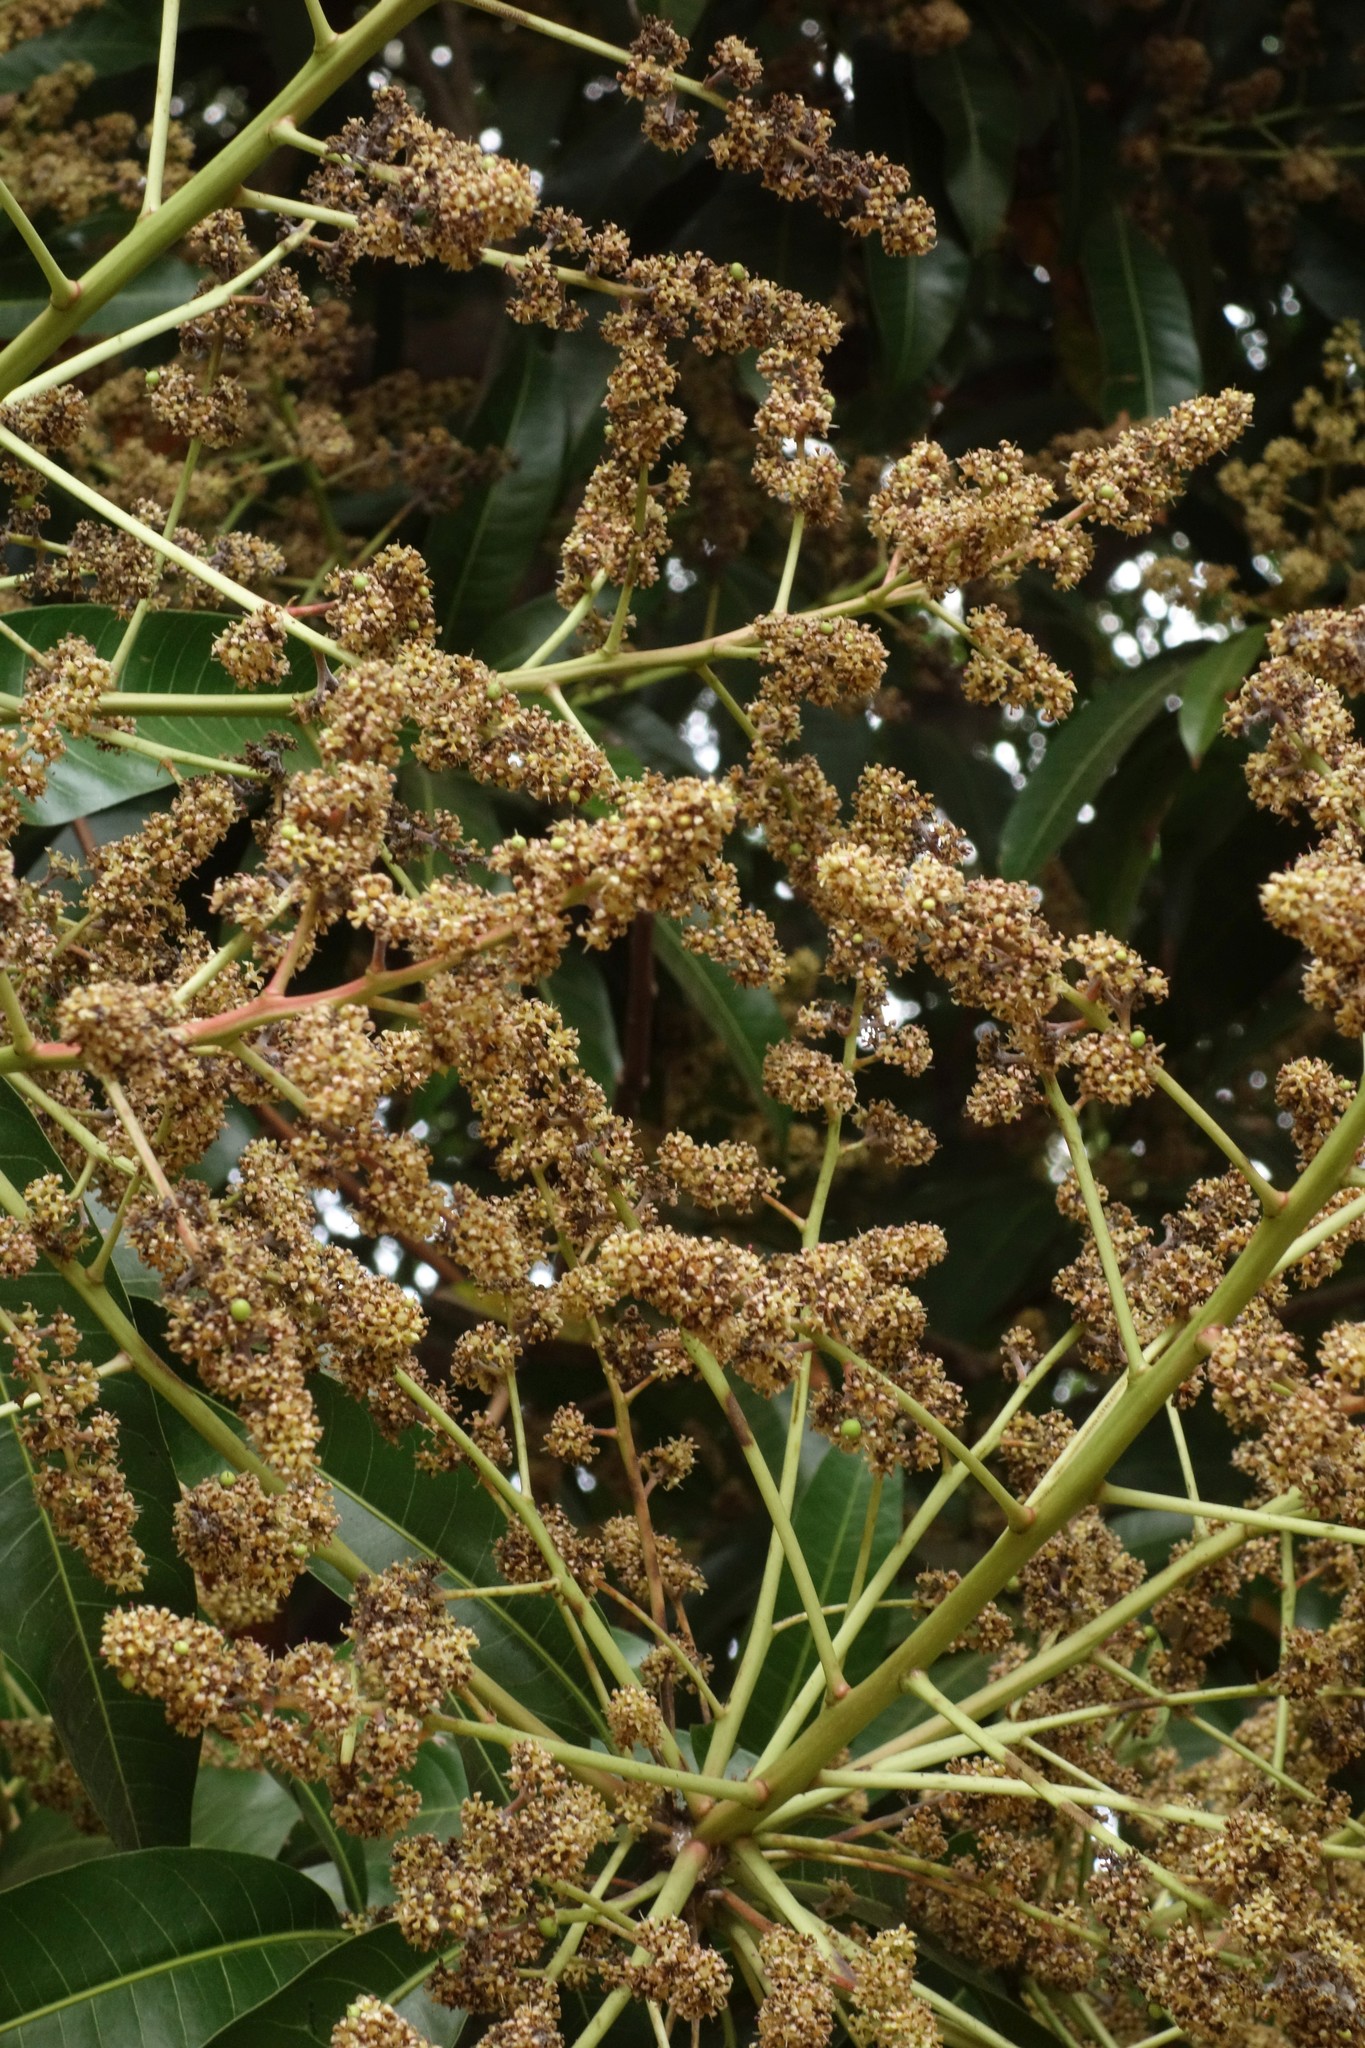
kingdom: Plantae
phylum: Tracheophyta
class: Magnoliopsida
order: Sapindales
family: Anacardiaceae
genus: Mangifera
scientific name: Mangifera indica
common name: Mango
